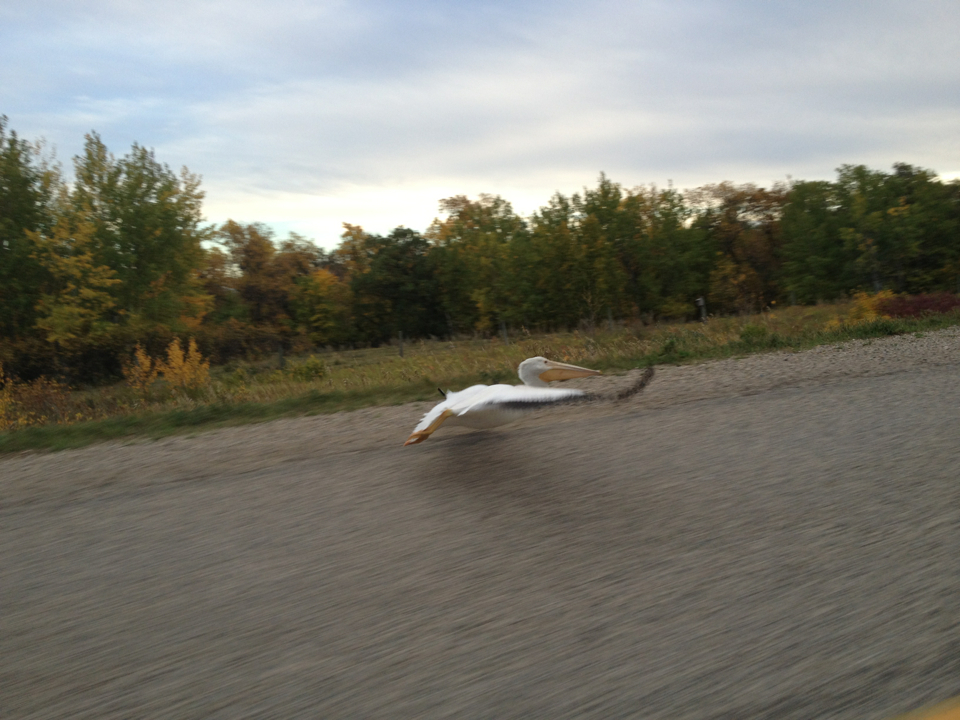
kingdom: Animalia
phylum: Chordata
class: Aves
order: Pelecaniformes
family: Pelecanidae
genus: Pelecanus
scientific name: Pelecanus erythrorhynchos
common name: American white pelican
